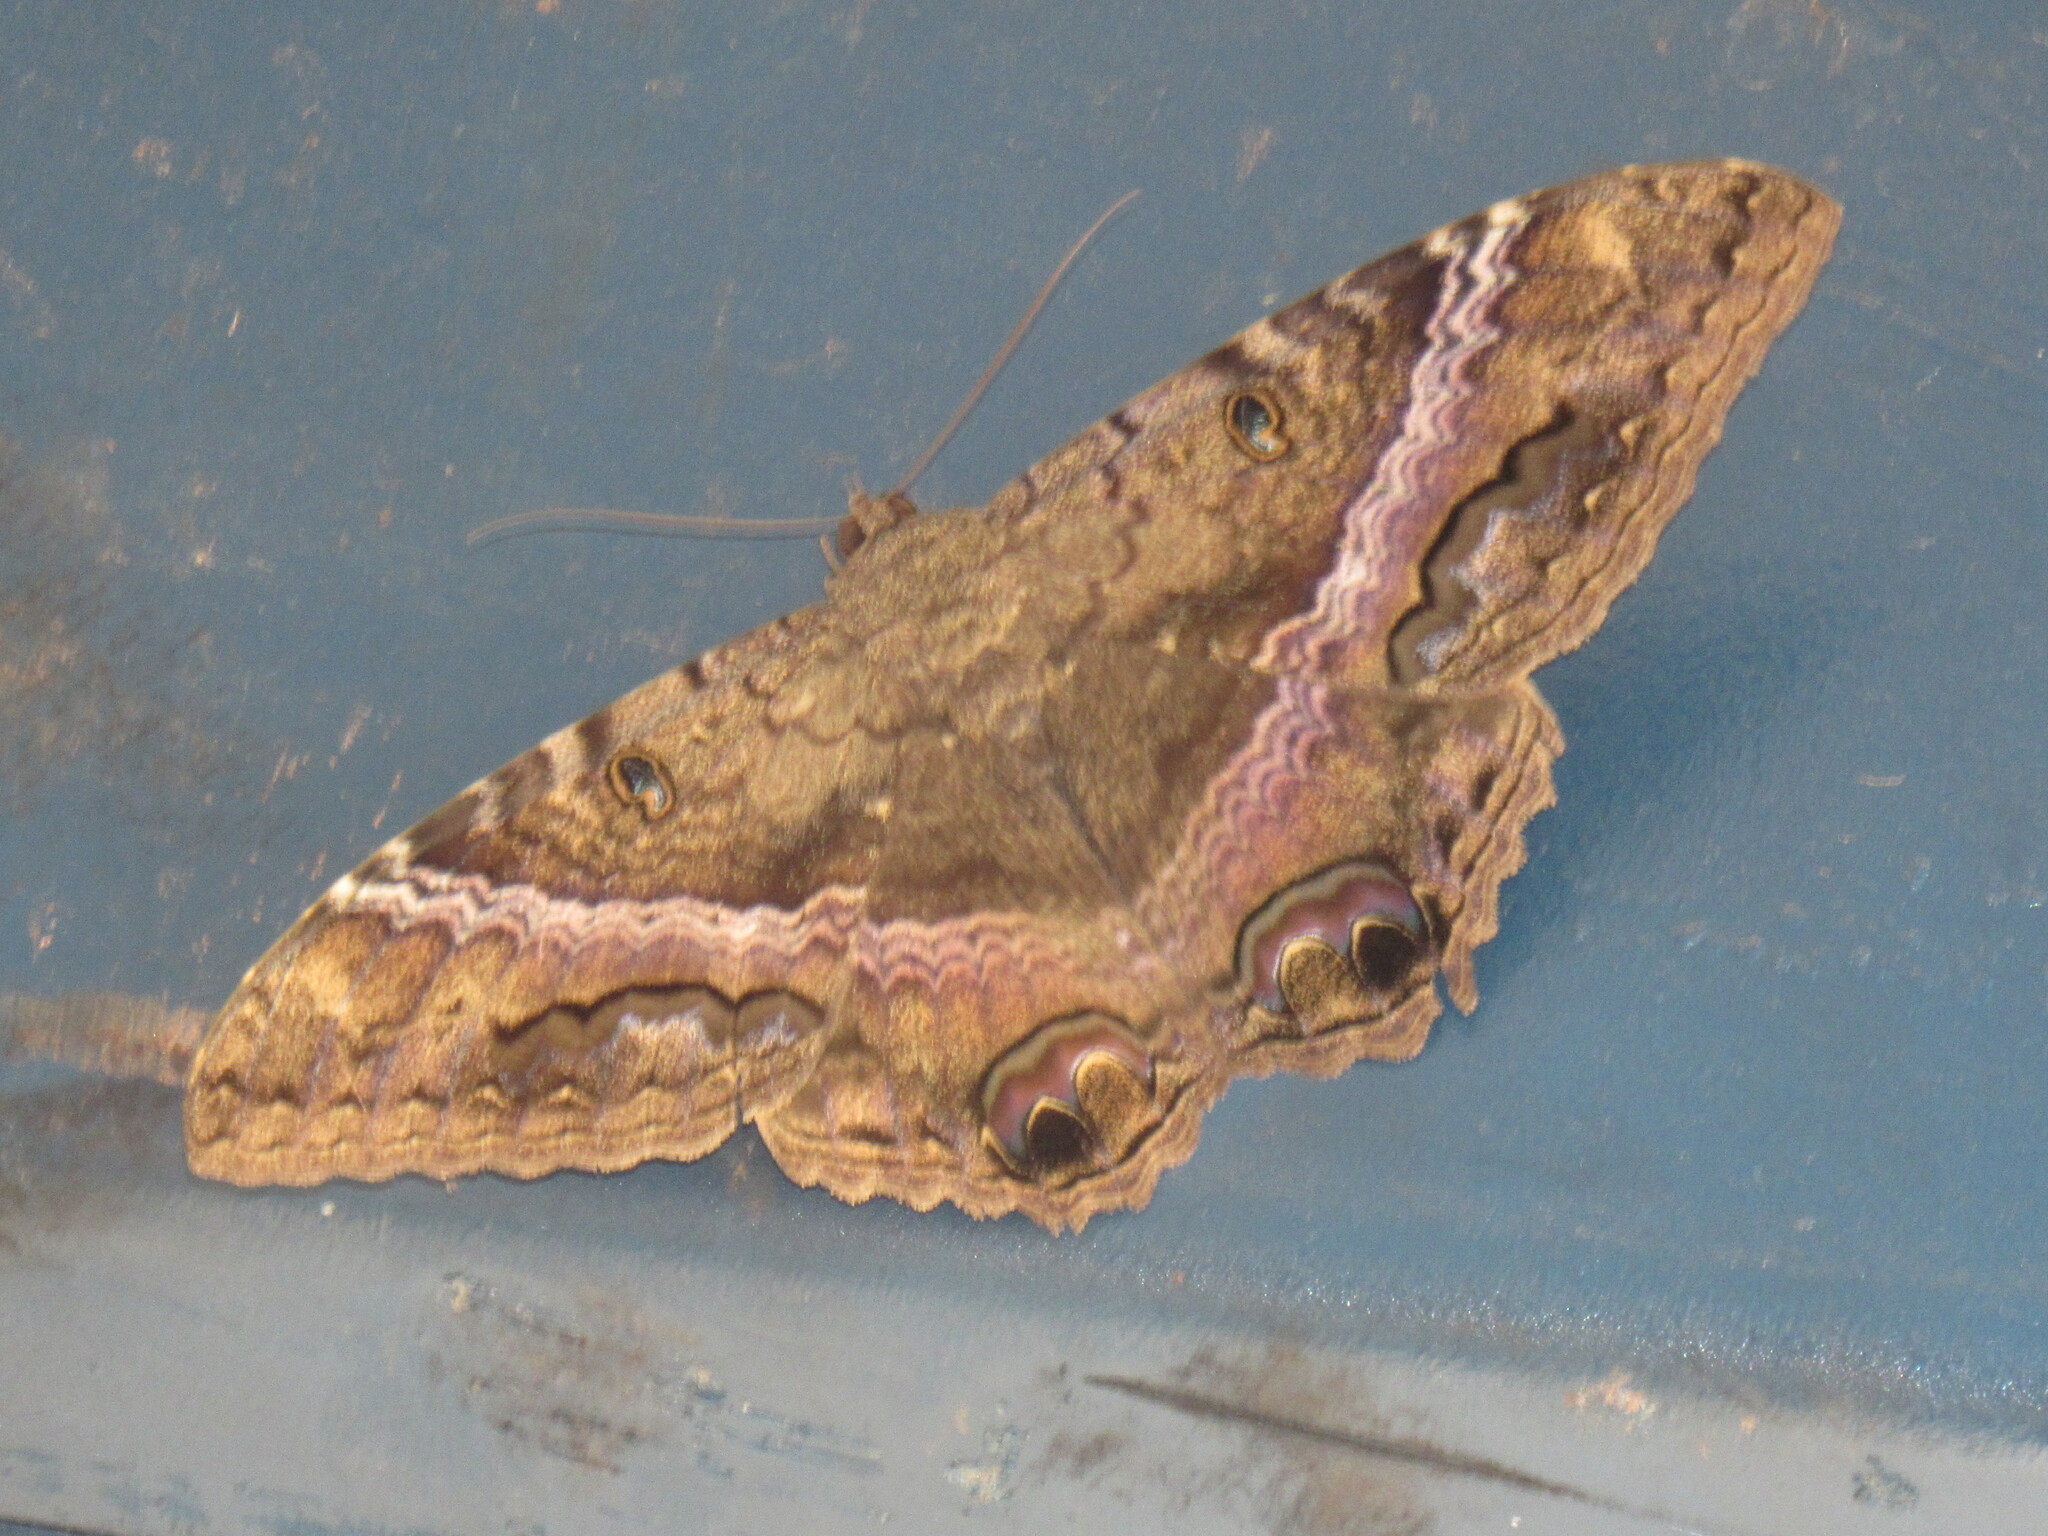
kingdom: Animalia
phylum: Arthropoda
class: Insecta
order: Lepidoptera
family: Erebidae
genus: Ascalapha
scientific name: Ascalapha odorata
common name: Black witch
